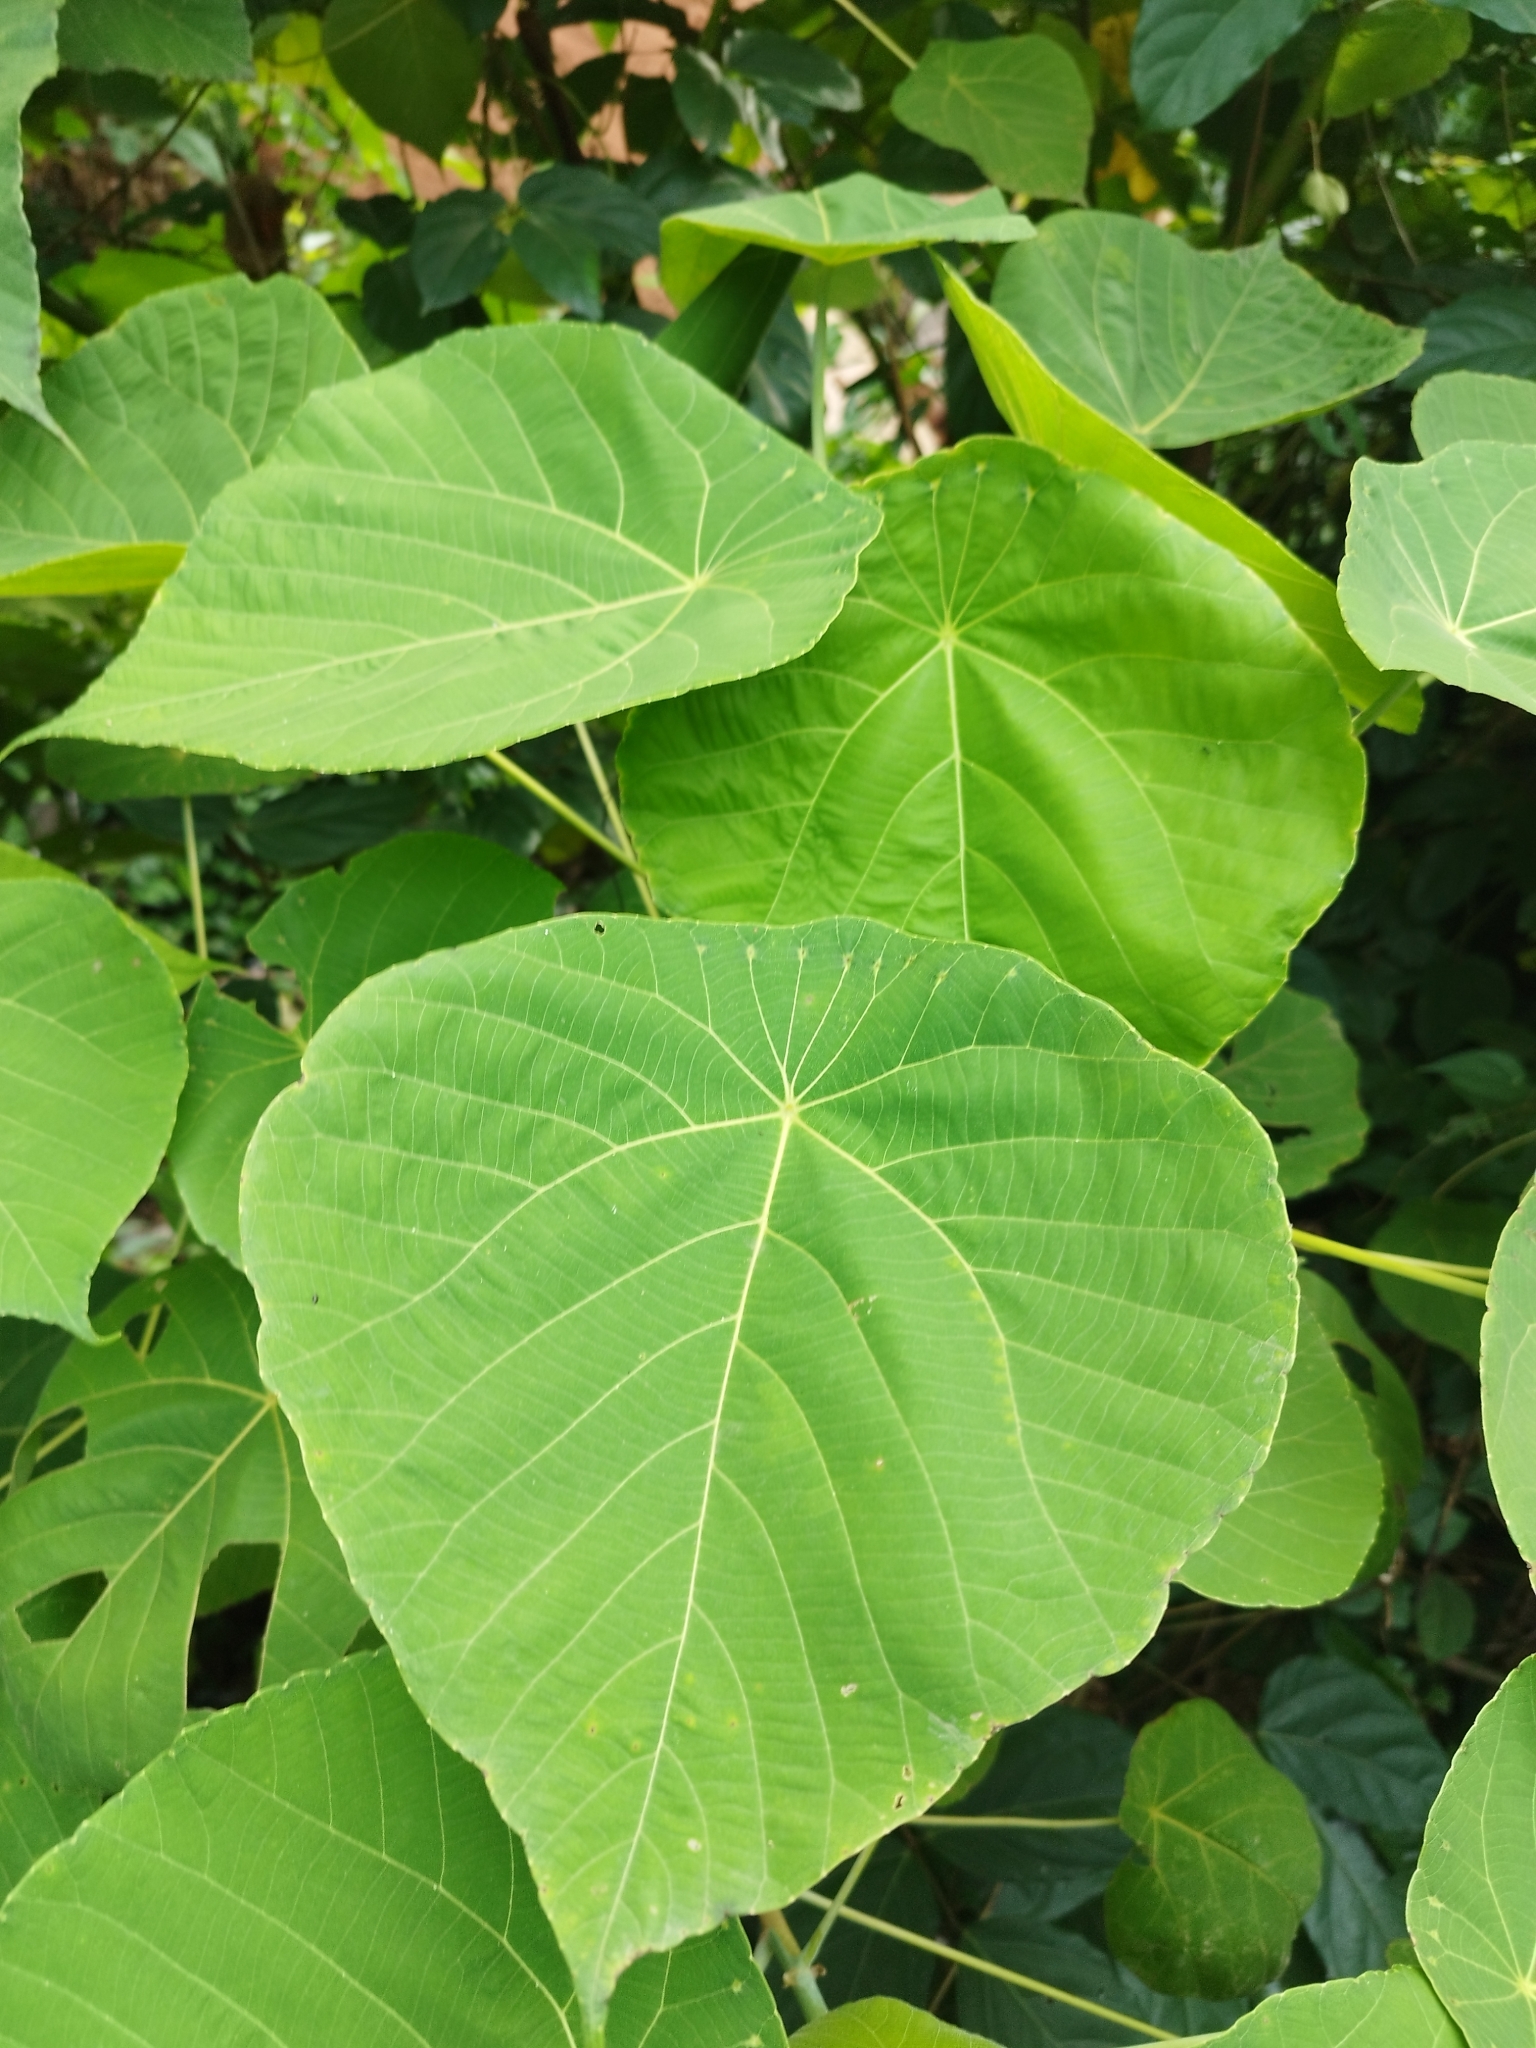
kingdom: Plantae
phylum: Tracheophyta
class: Magnoliopsida
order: Malpighiales
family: Euphorbiaceae
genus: Macaranga
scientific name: Macaranga tanarius
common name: Parasol leaf tree
